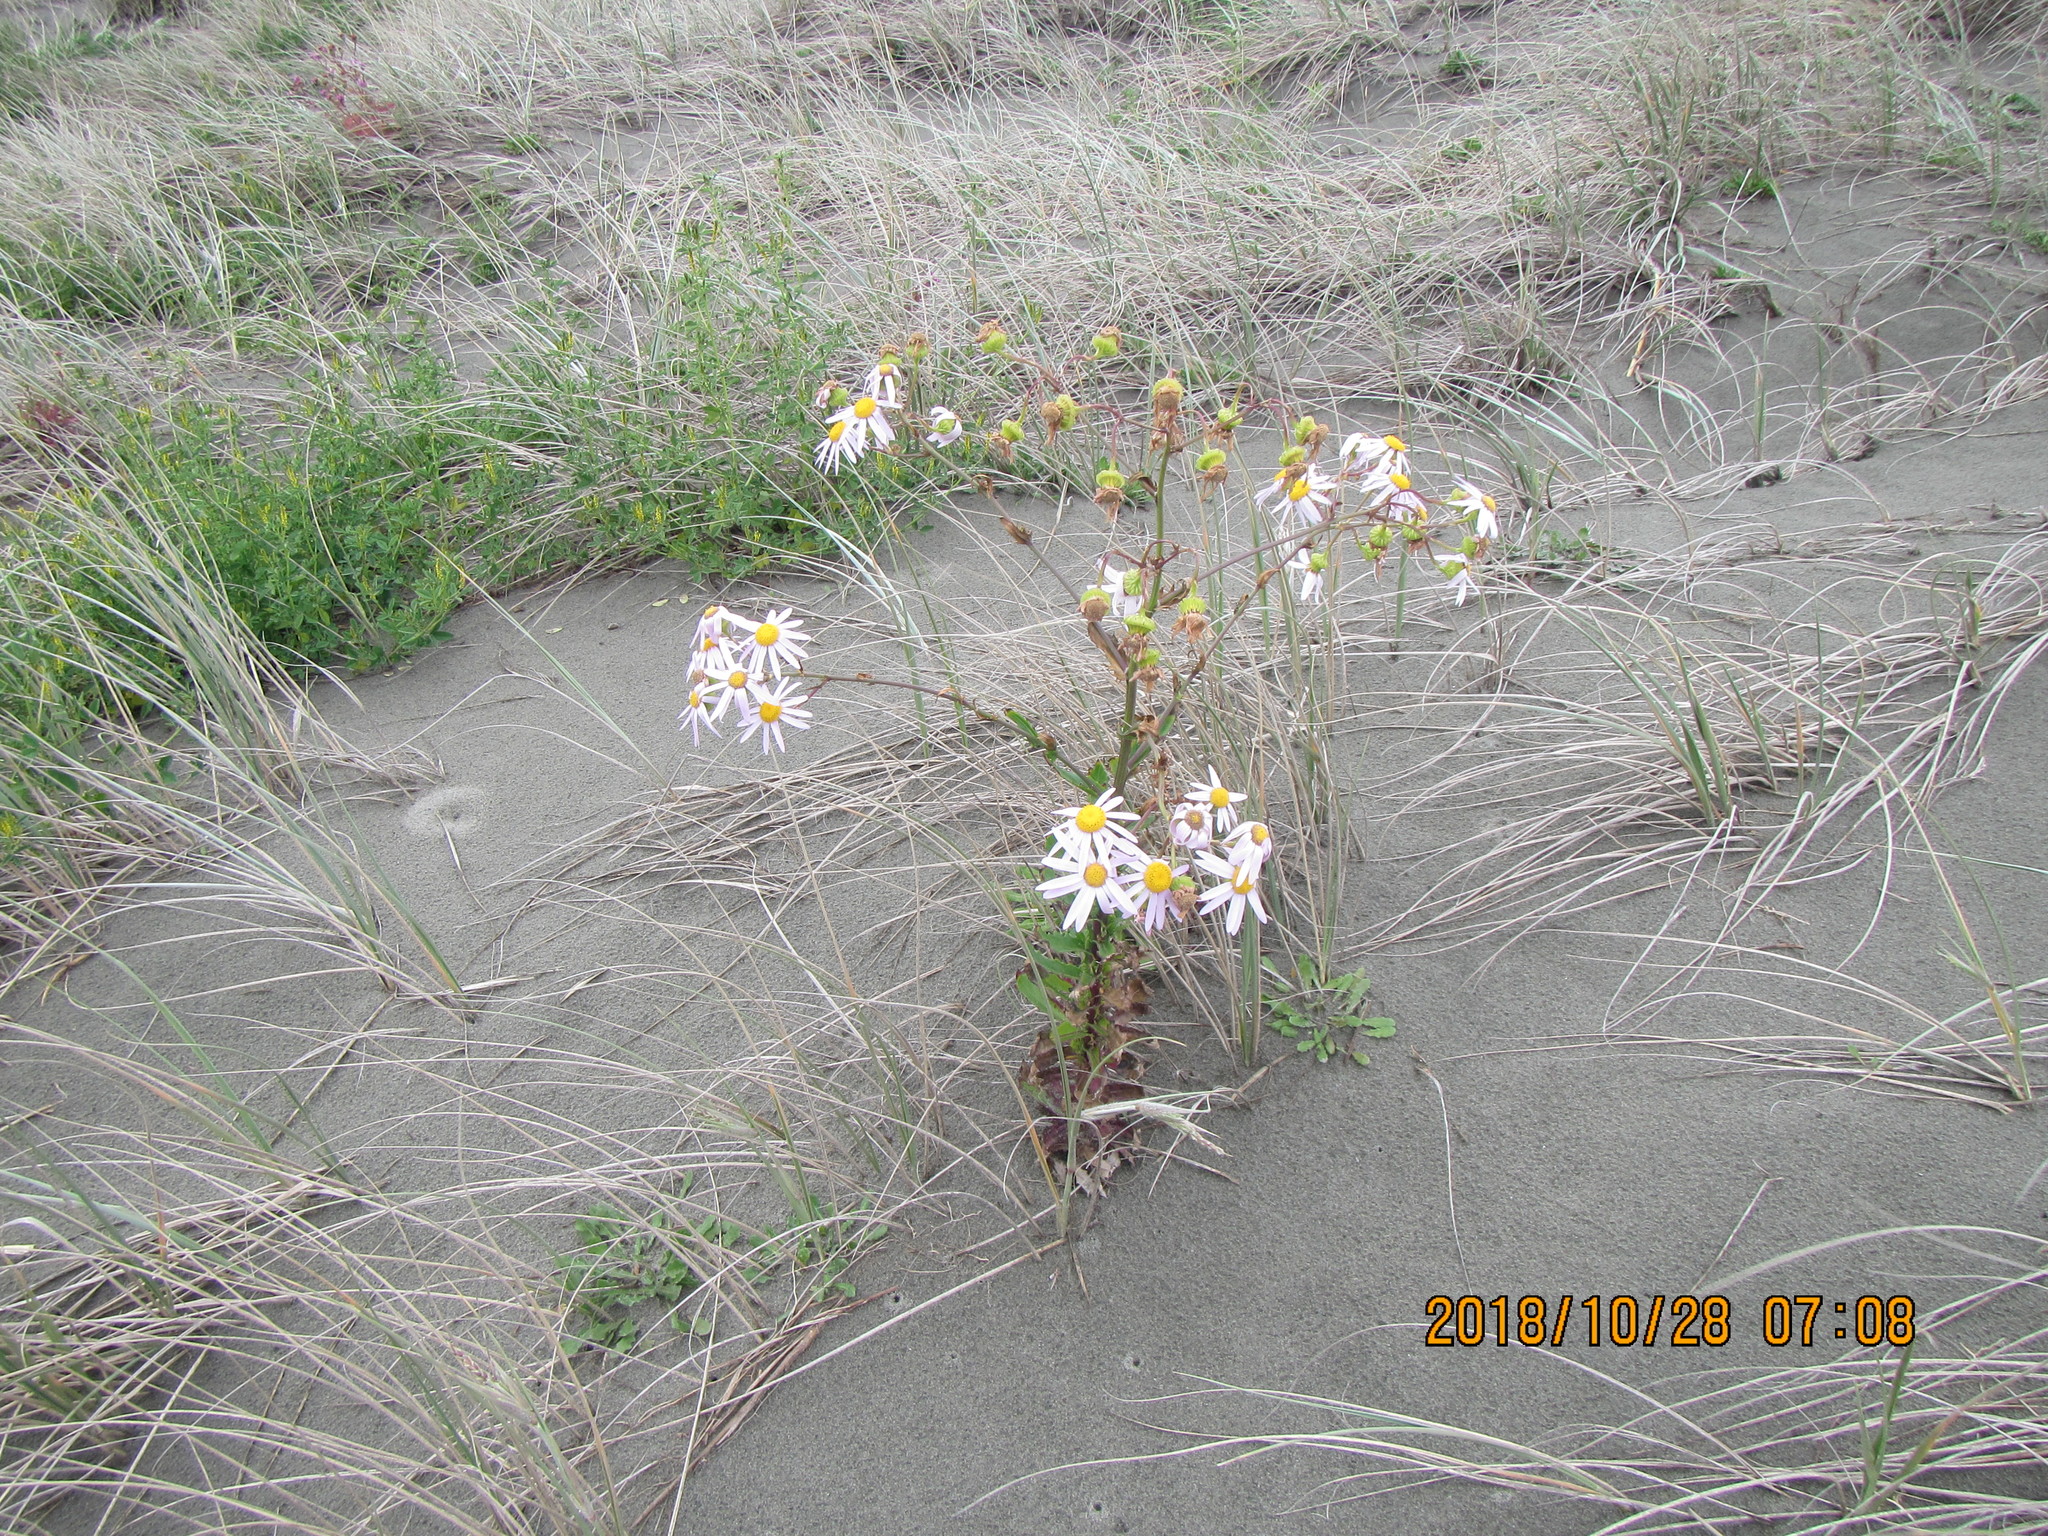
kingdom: Plantae
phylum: Tracheophyta
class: Magnoliopsida
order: Asterales
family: Asteraceae
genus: Senecio
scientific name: Senecio glastifolius
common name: Woad-leaved ragwort
